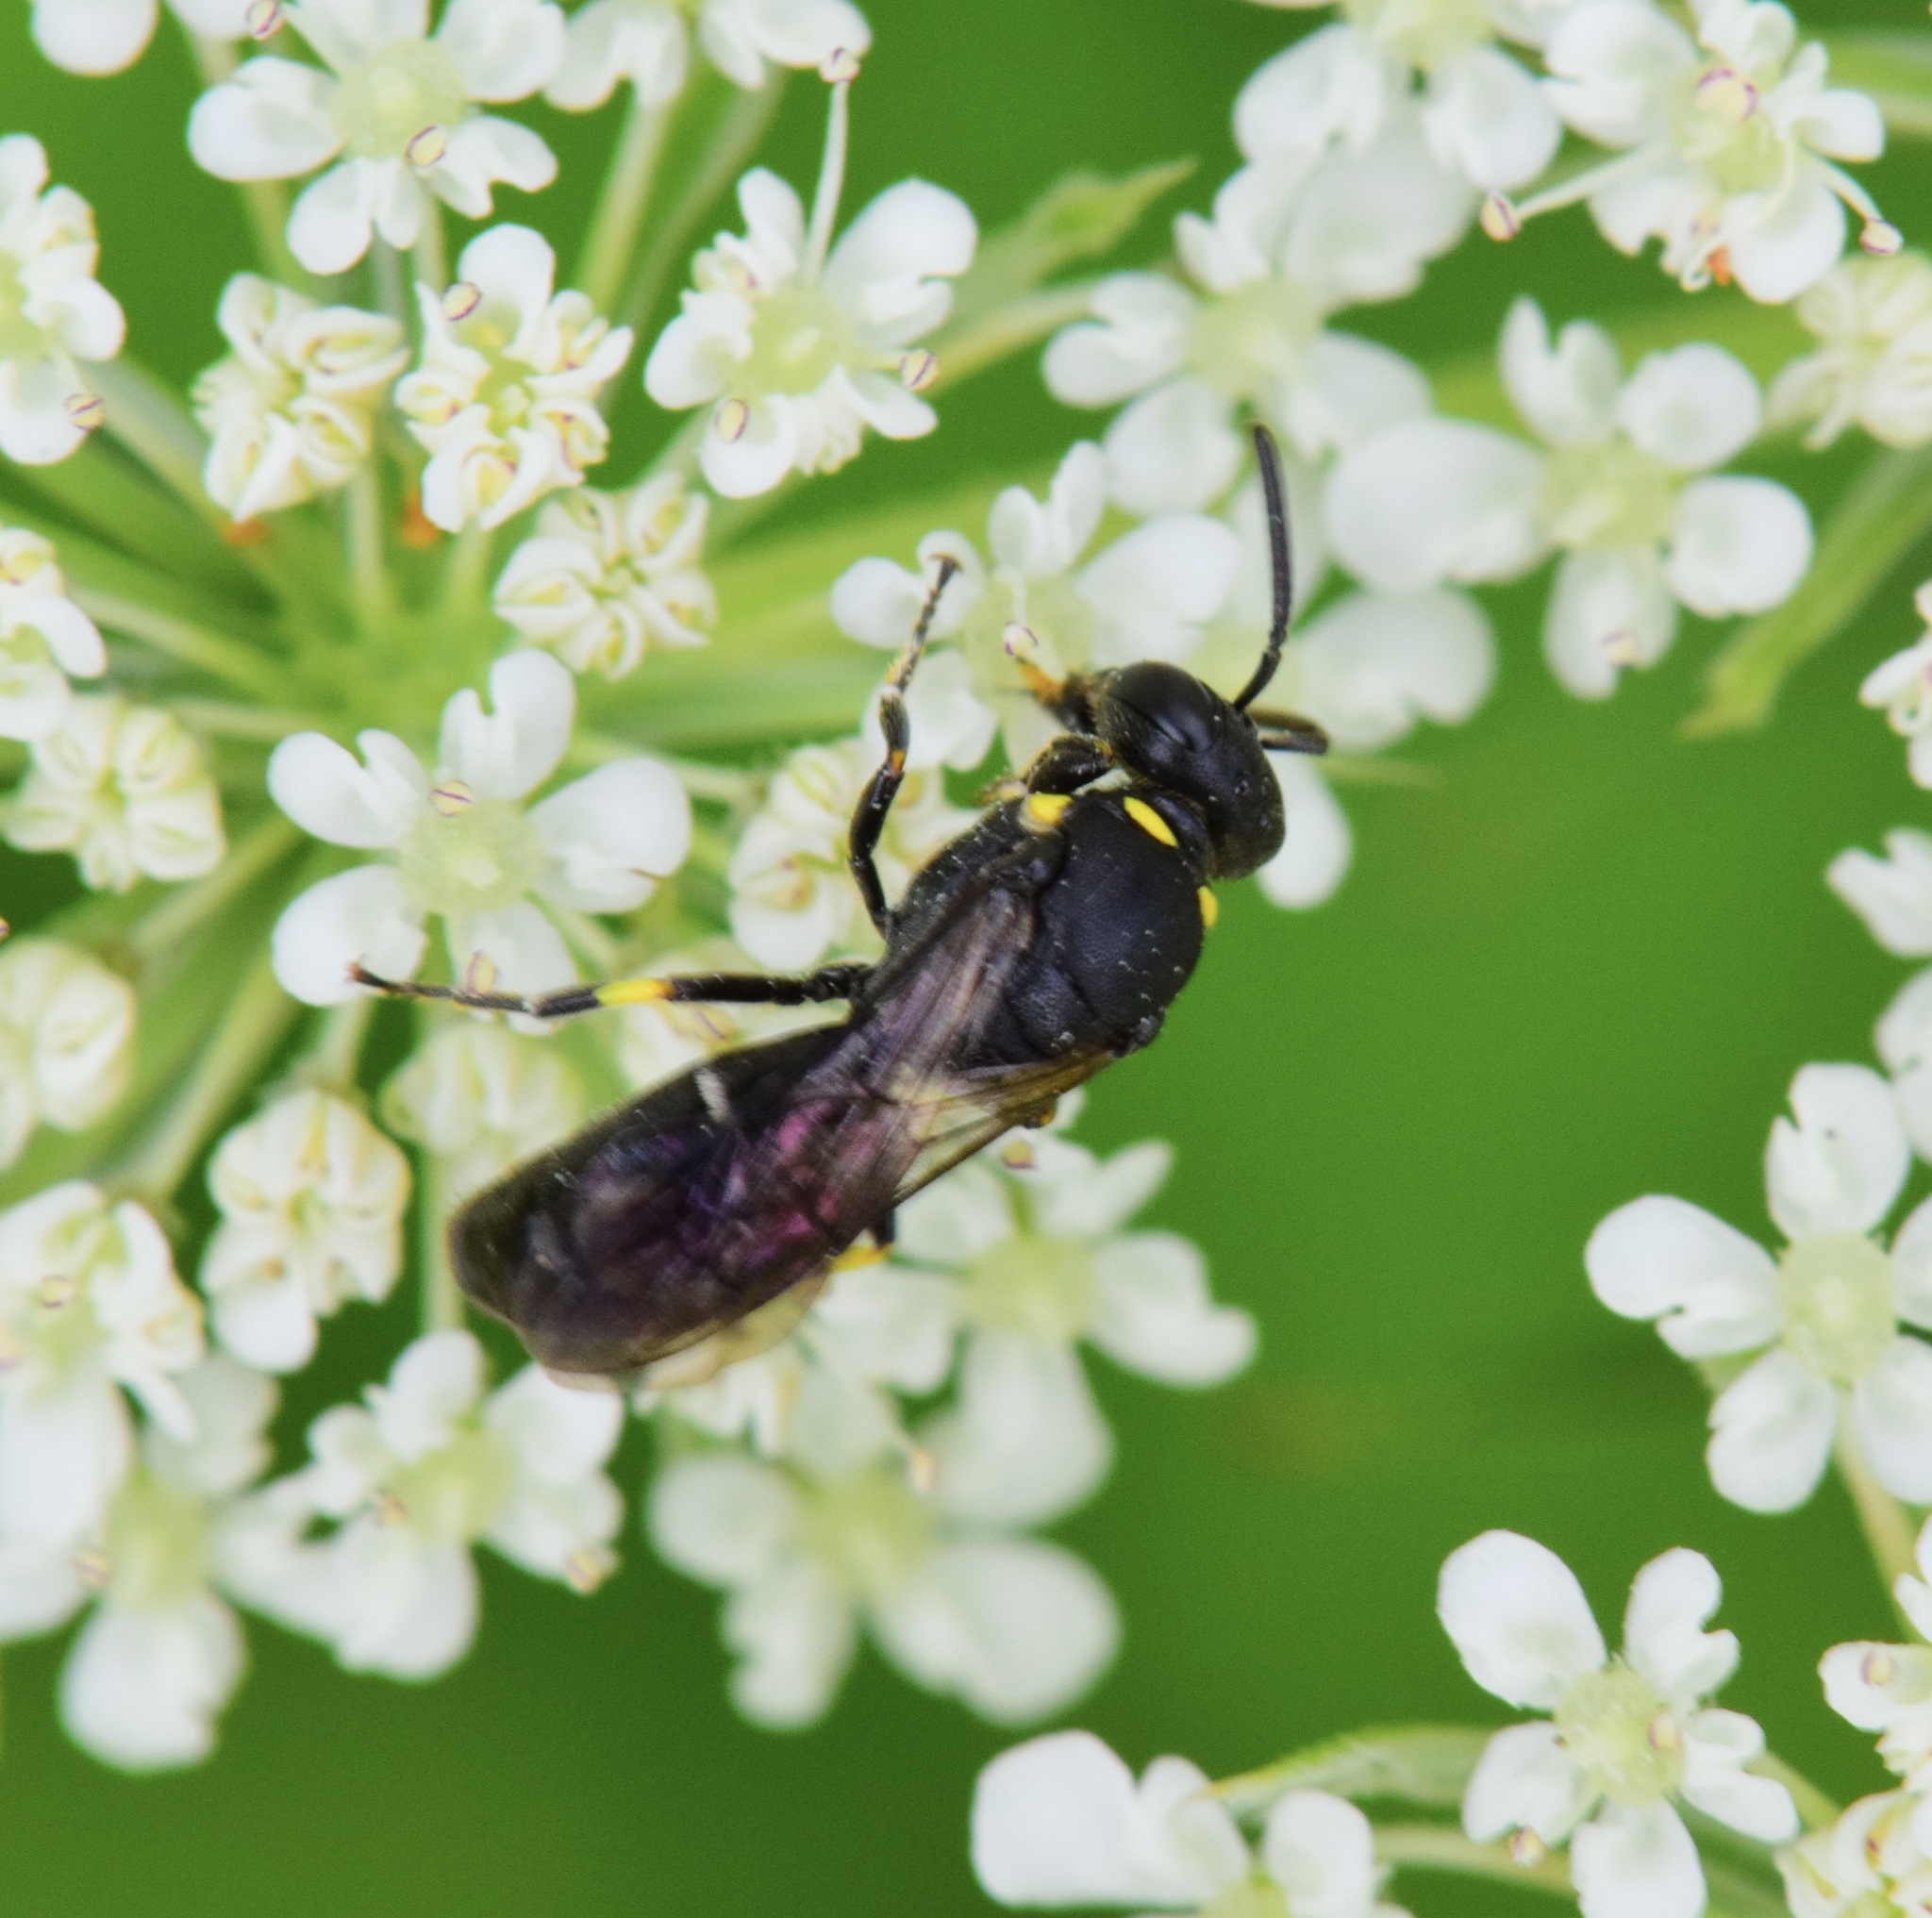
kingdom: Animalia
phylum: Arthropoda
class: Insecta
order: Hymenoptera
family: Colletidae
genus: Hylaeus
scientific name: Hylaeus modestus
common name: Yellow-faced bee
